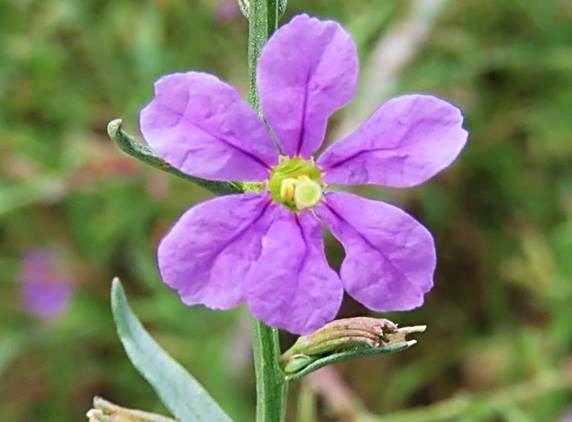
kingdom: Plantae
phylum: Tracheophyta
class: Magnoliopsida
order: Myrtales
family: Lythraceae
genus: Lythrum
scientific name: Lythrum californicum
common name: California loosestrife
